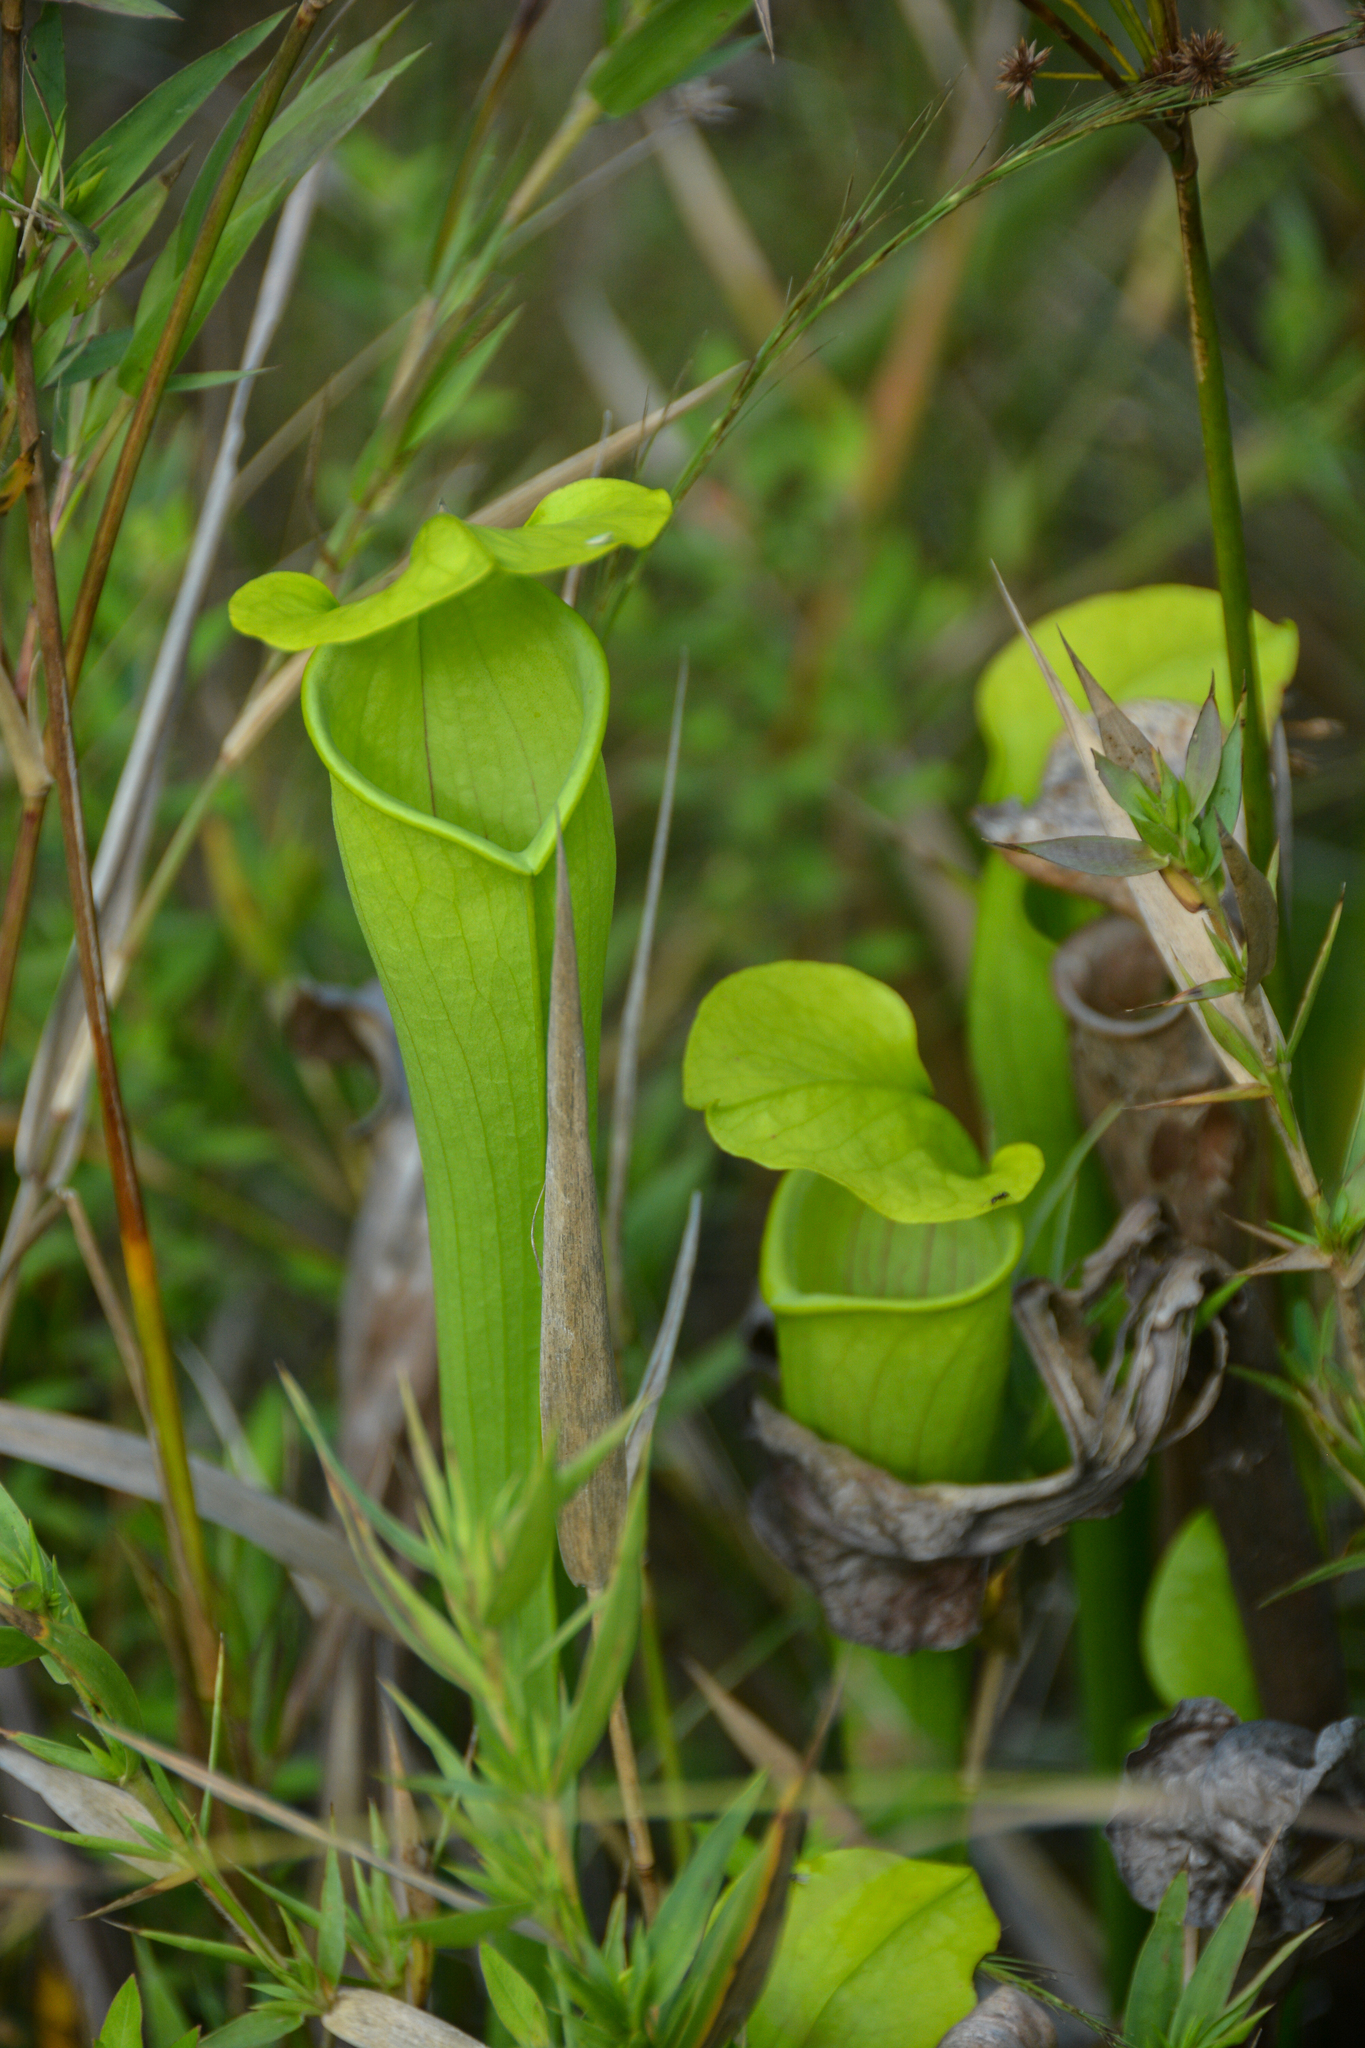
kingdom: Plantae
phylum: Tracheophyta
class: Magnoliopsida
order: Ericales
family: Sarraceniaceae
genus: Sarracenia
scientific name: Sarracenia alata
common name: Yellow trumpets
